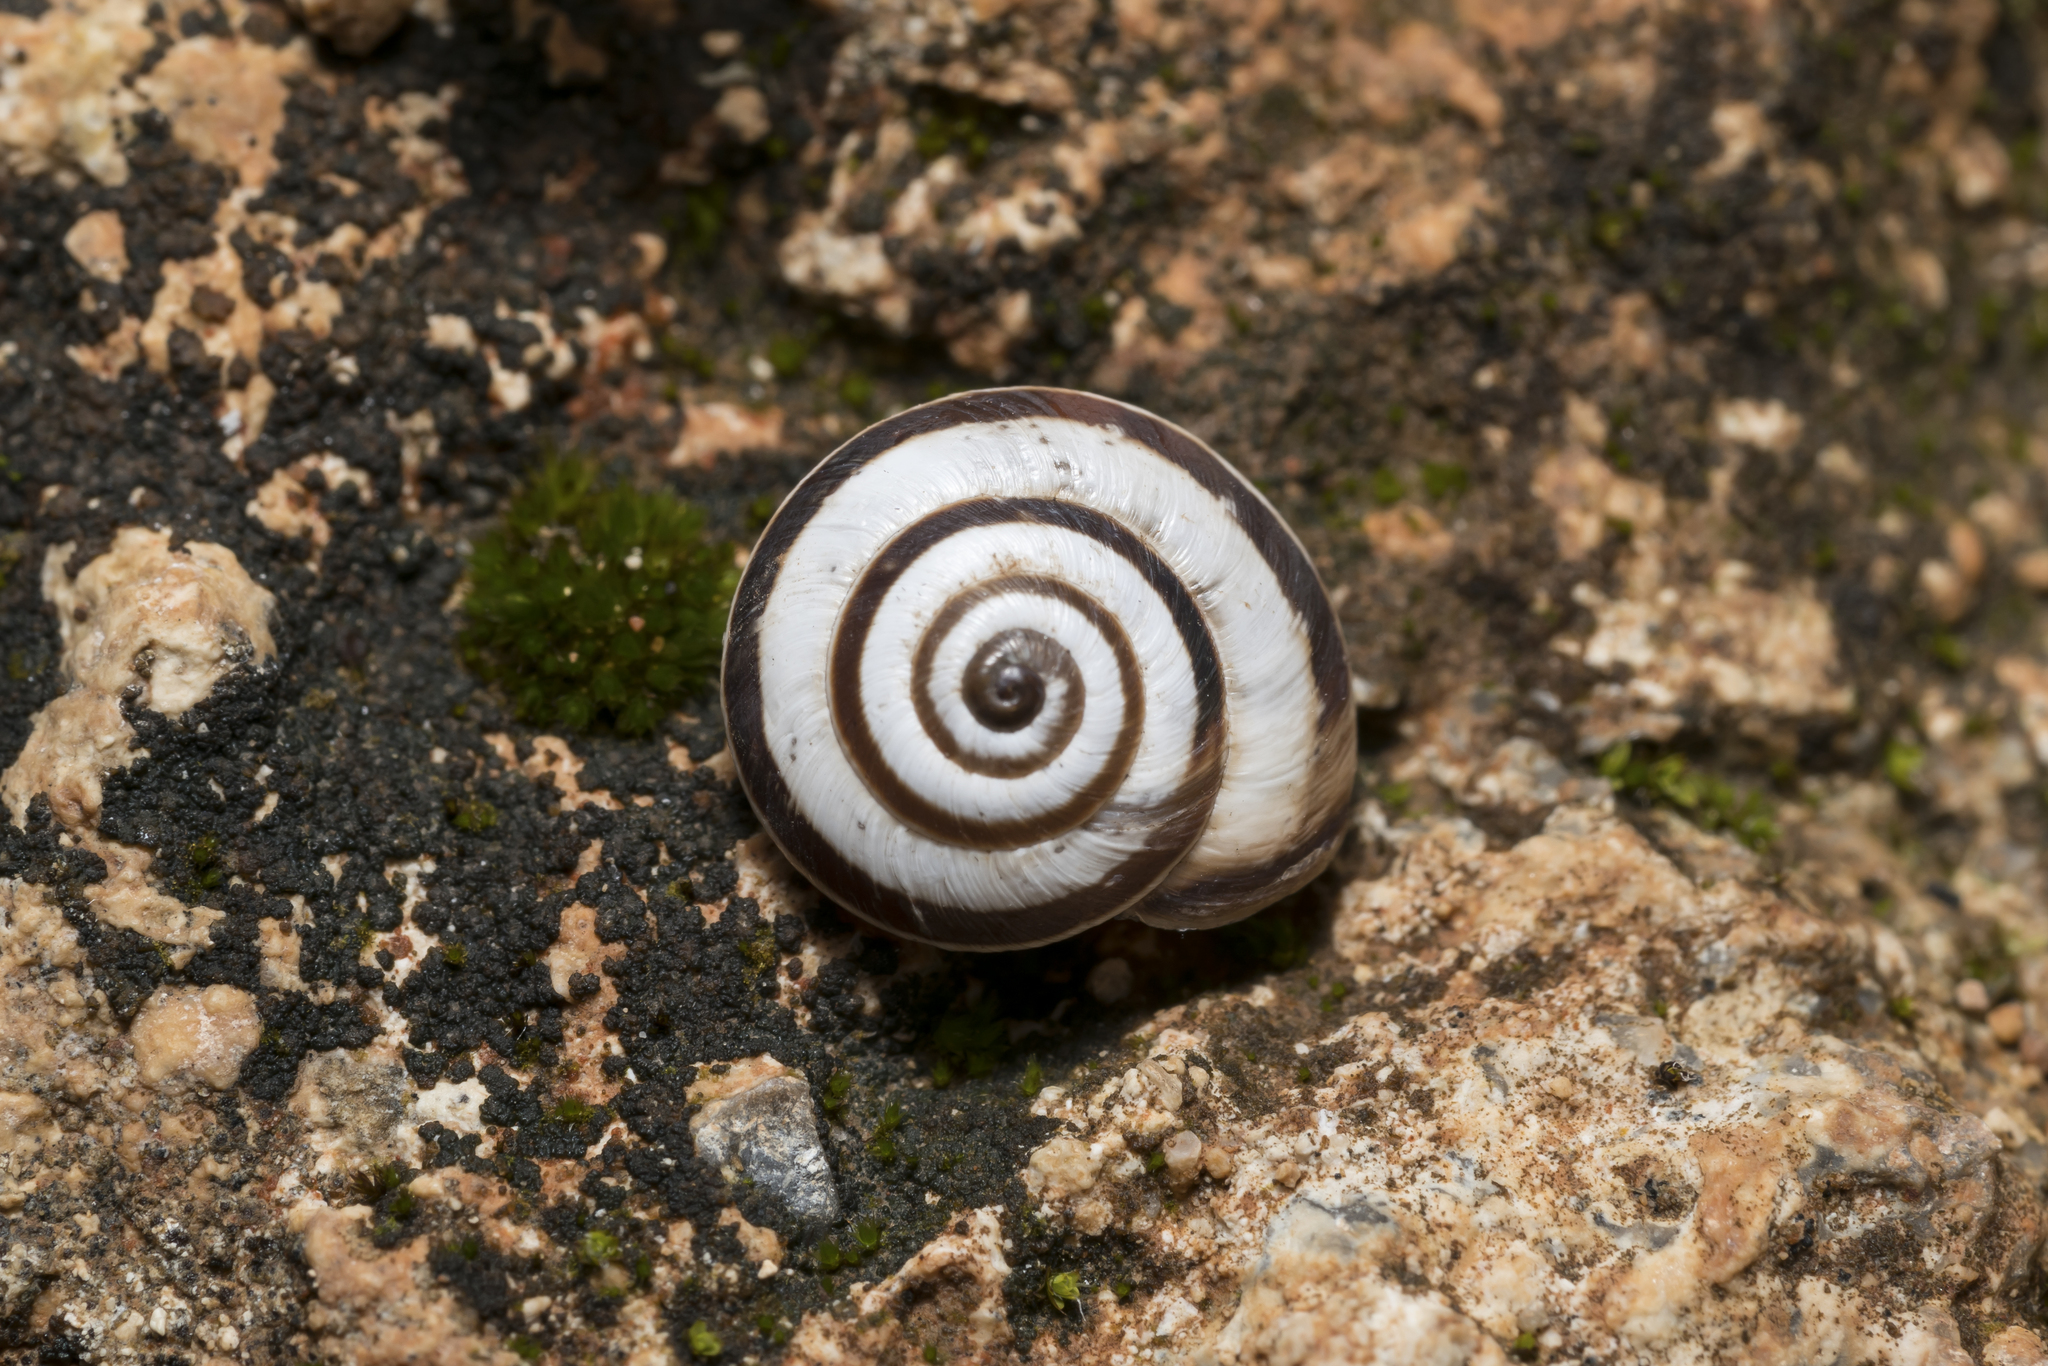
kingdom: Animalia
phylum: Mollusca
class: Gastropoda
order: Stylommatophora
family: Geomitridae
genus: Cernuella
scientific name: Cernuella virgata
